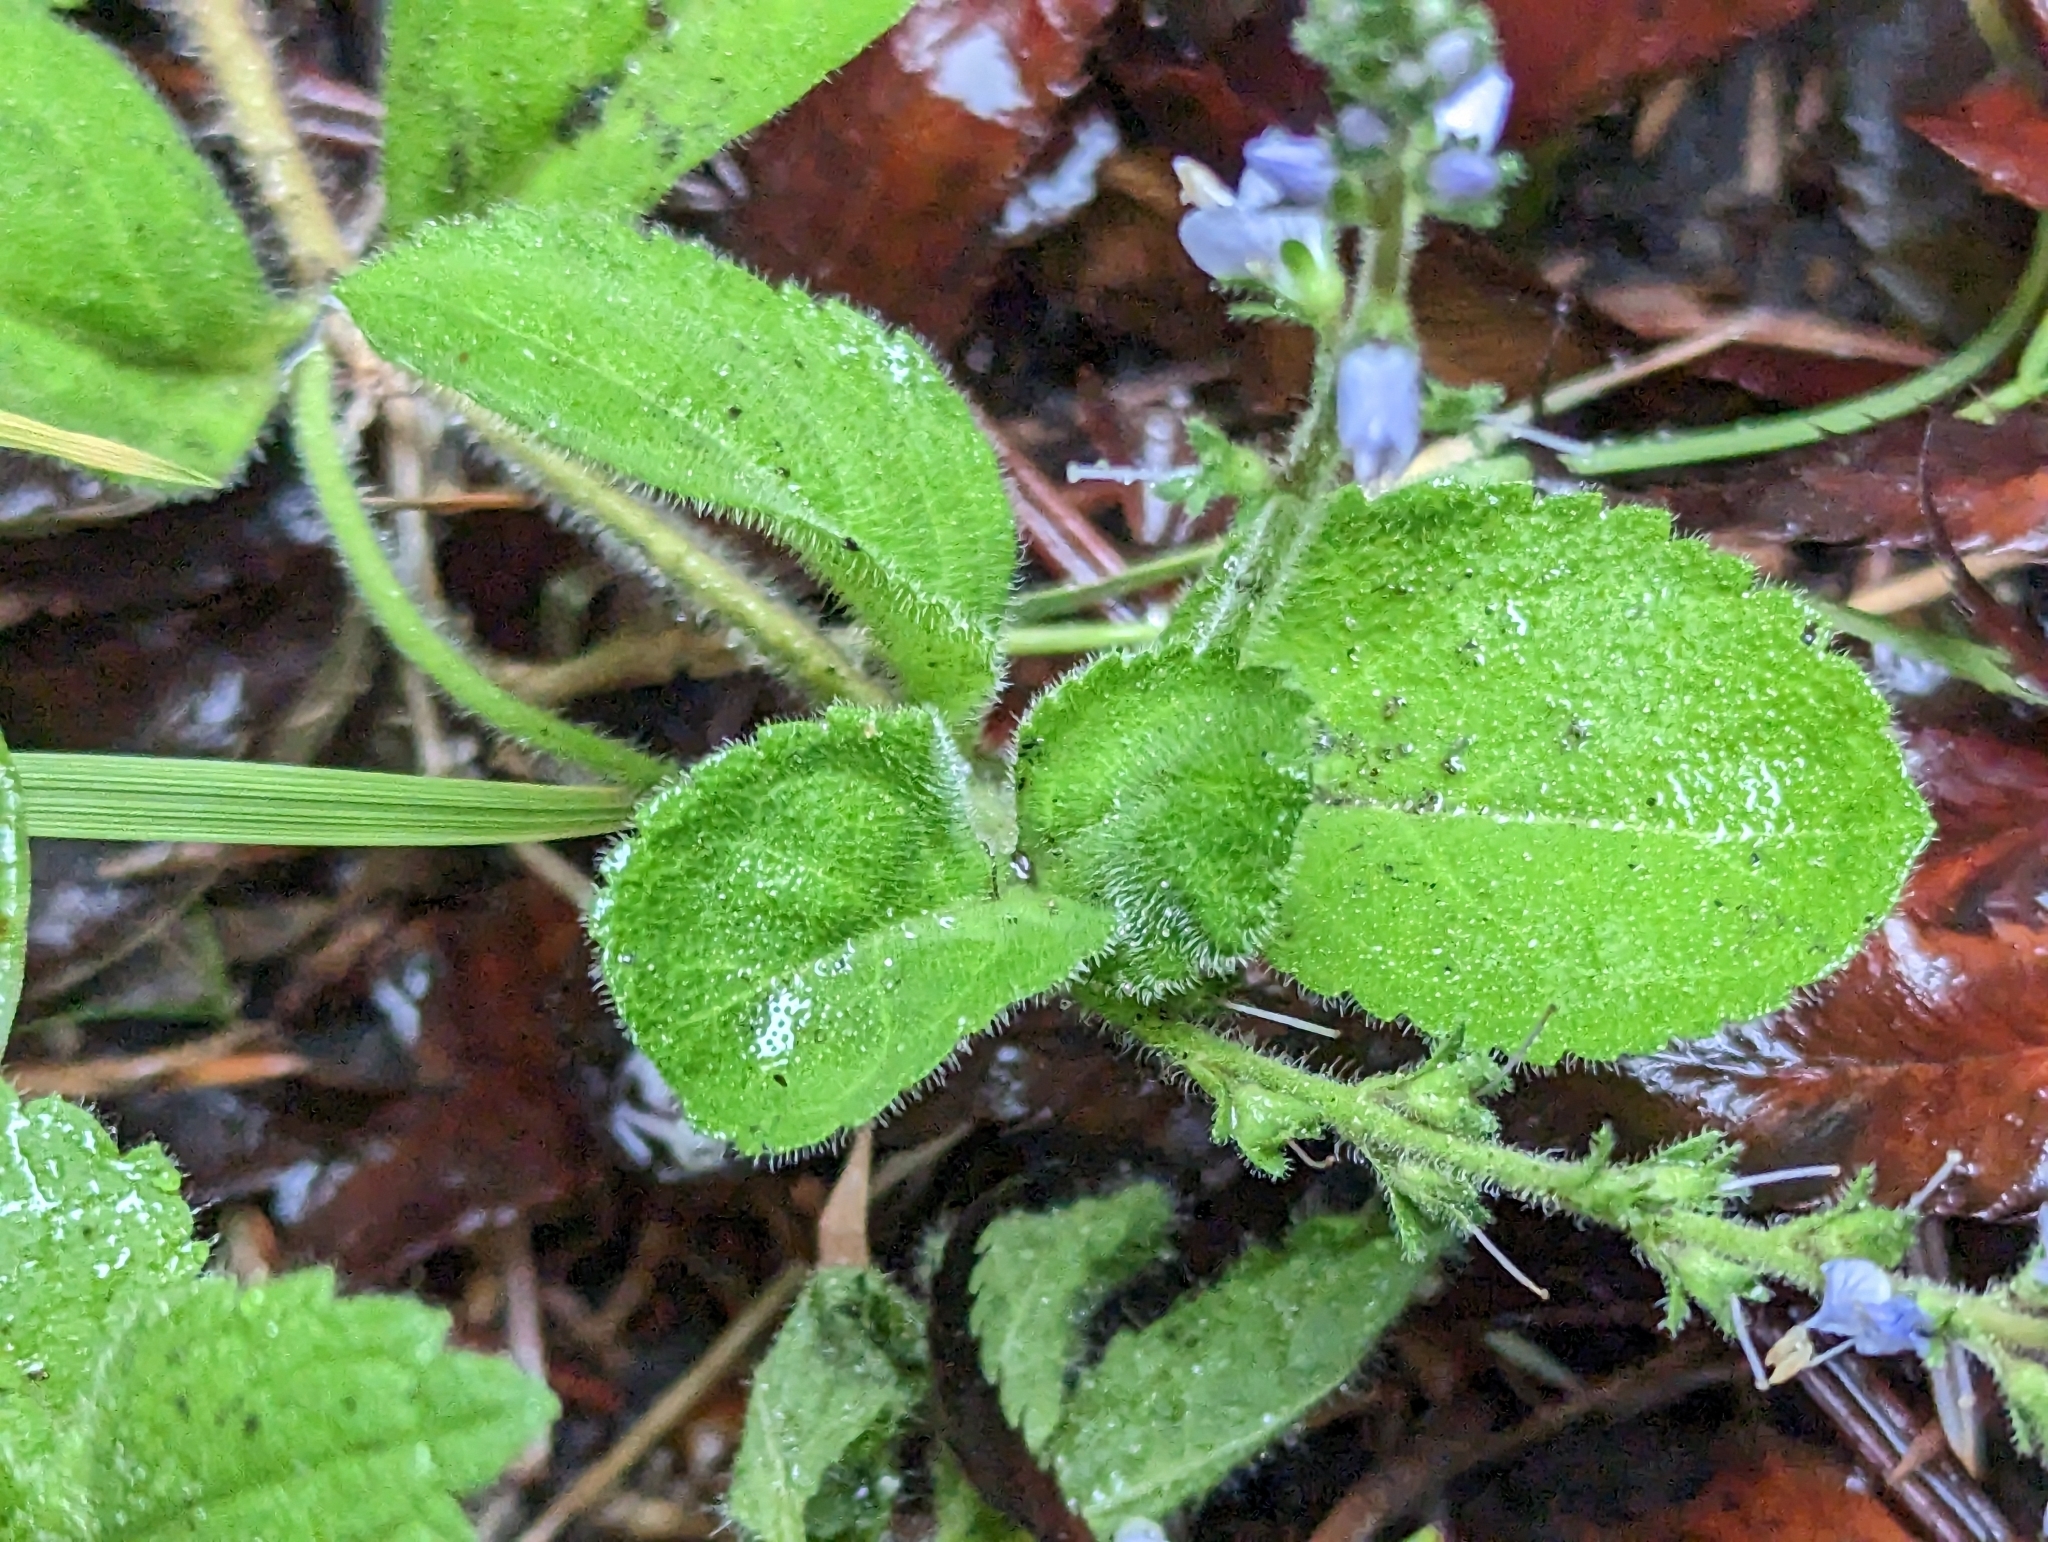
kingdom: Plantae
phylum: Tracheophyta
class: Magnoliopsida
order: Lamiales
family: Plantaginaceae
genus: Veronica
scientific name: Veronica officinalis
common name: Common speedwell
